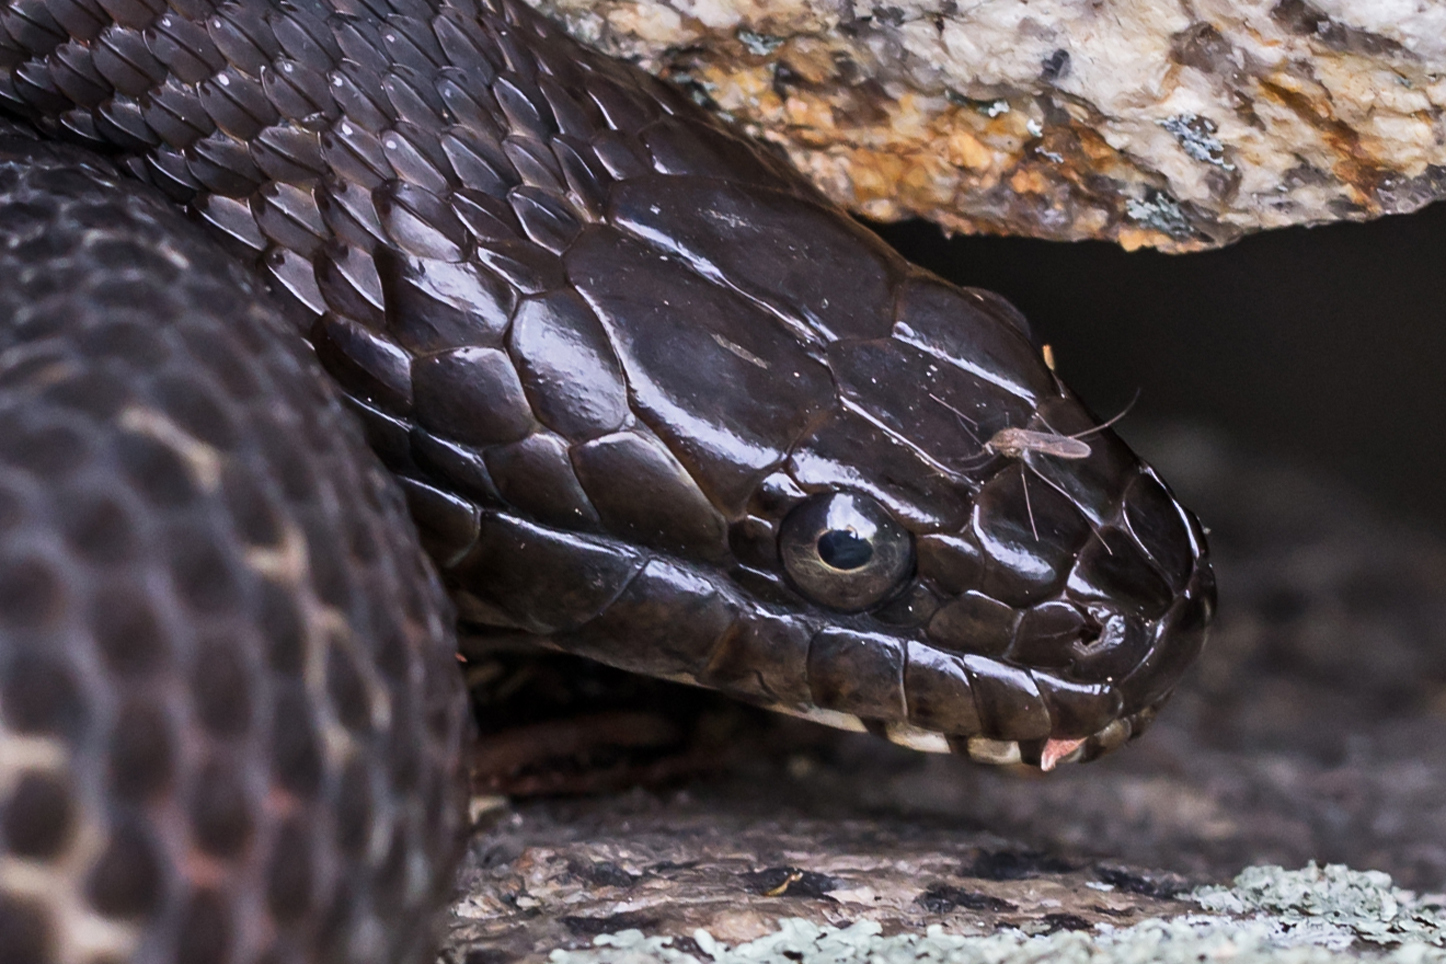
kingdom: Animalia
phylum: Chordata
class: Squamata
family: Colubridae
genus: Nerodia
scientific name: Nerodia sipedon
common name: Northern water snake
